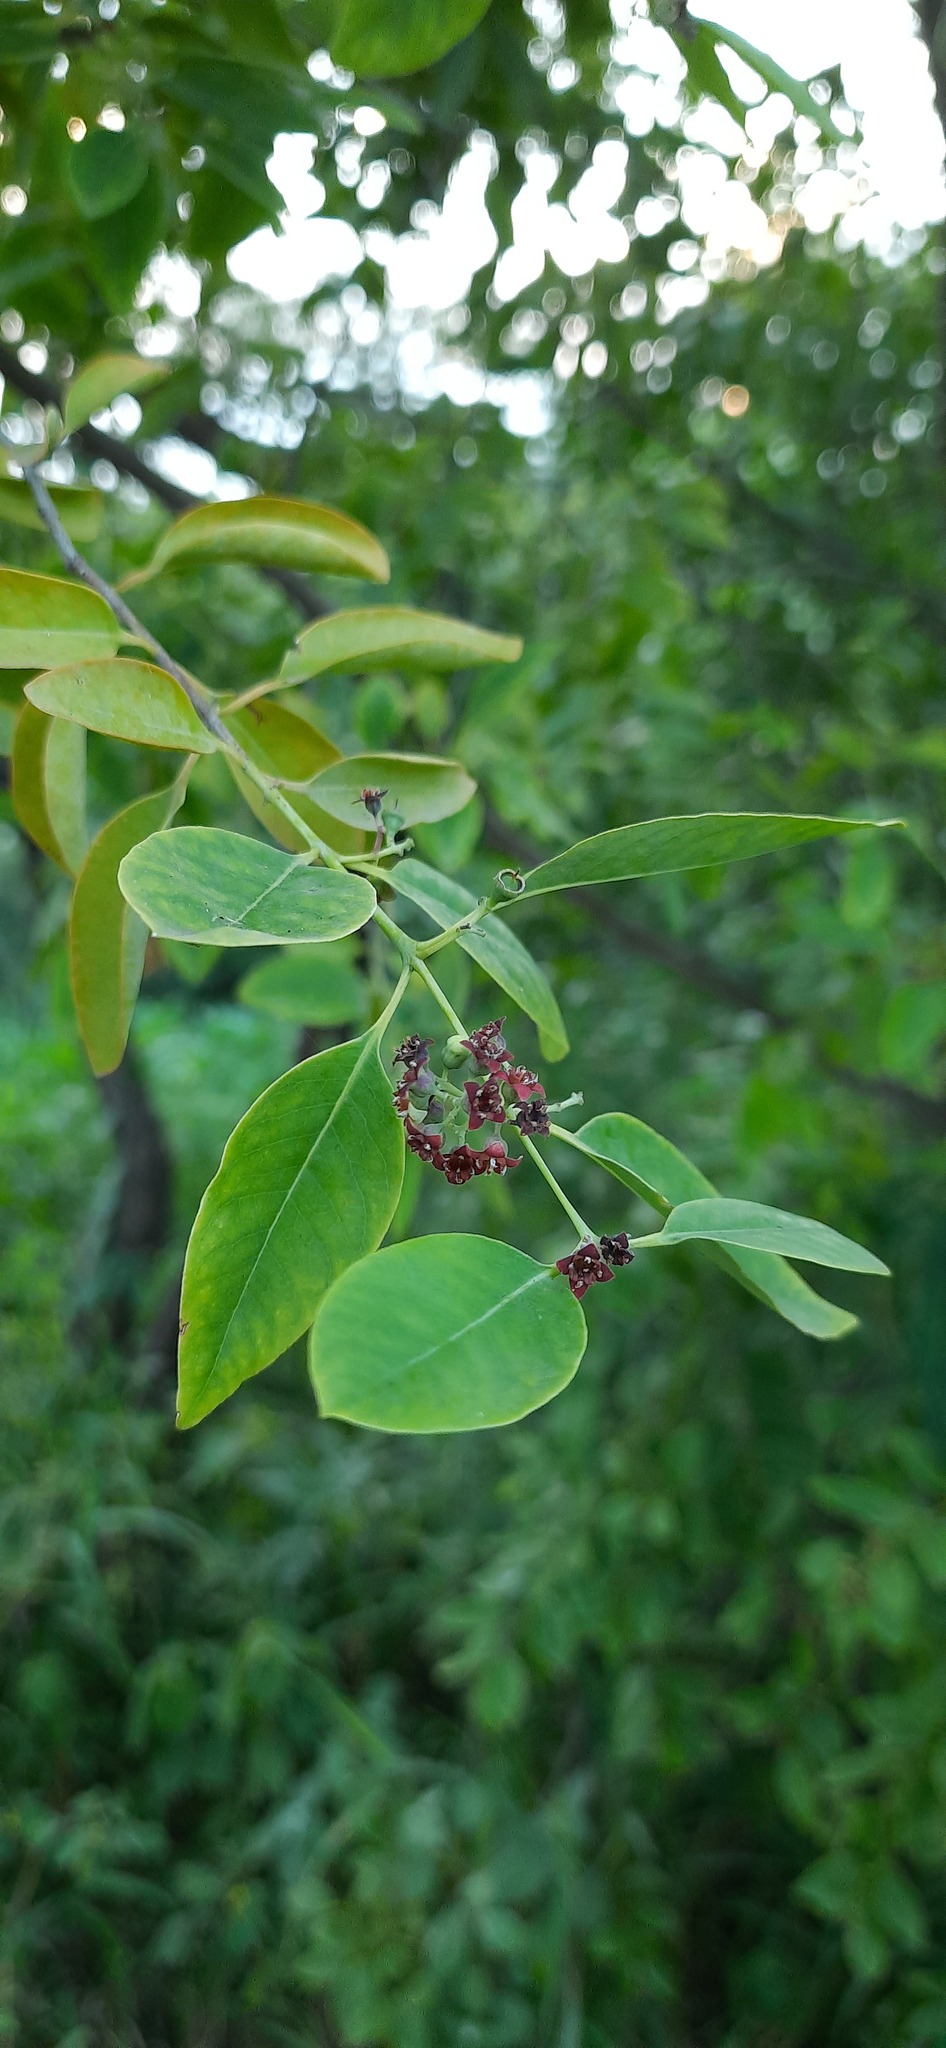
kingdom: Plantae
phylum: Tracheophyta
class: Magnoliopsida
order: Santalales
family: Santalaceae
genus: Santalum
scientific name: Santalum album
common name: Indian sandalwood
